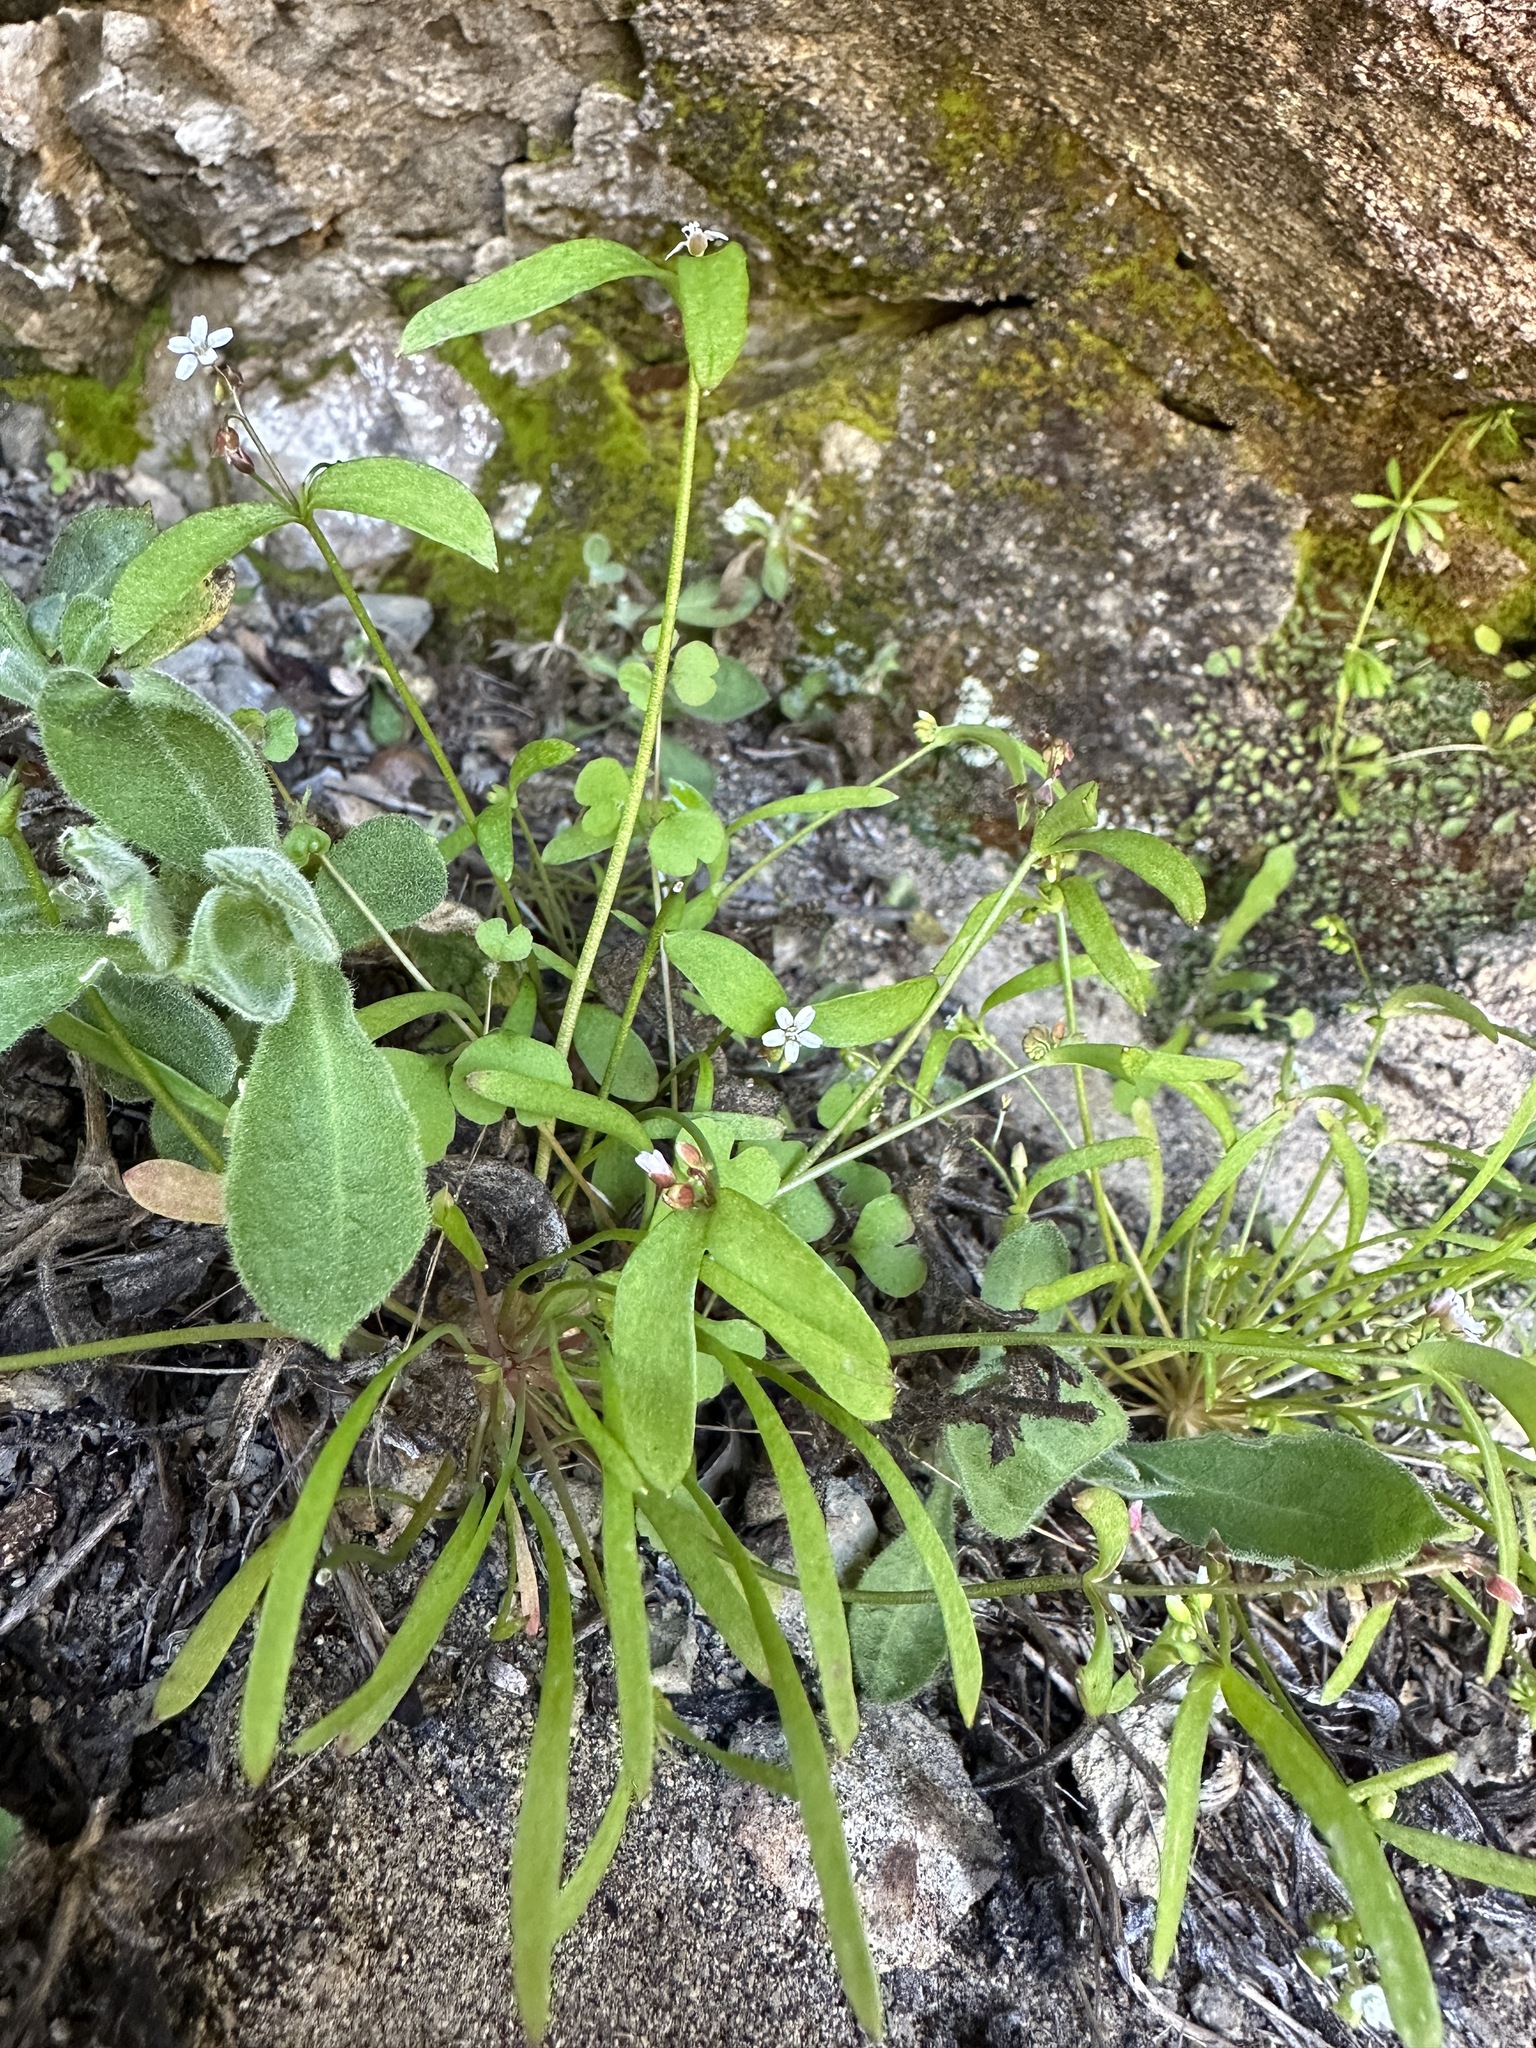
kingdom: Plantae
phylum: Tracheophyta
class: Magnoliopsida
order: Caryophyllales
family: Montiaceae
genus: Claytonia
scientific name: Claytonia parviflora
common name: Indian-lettuce
